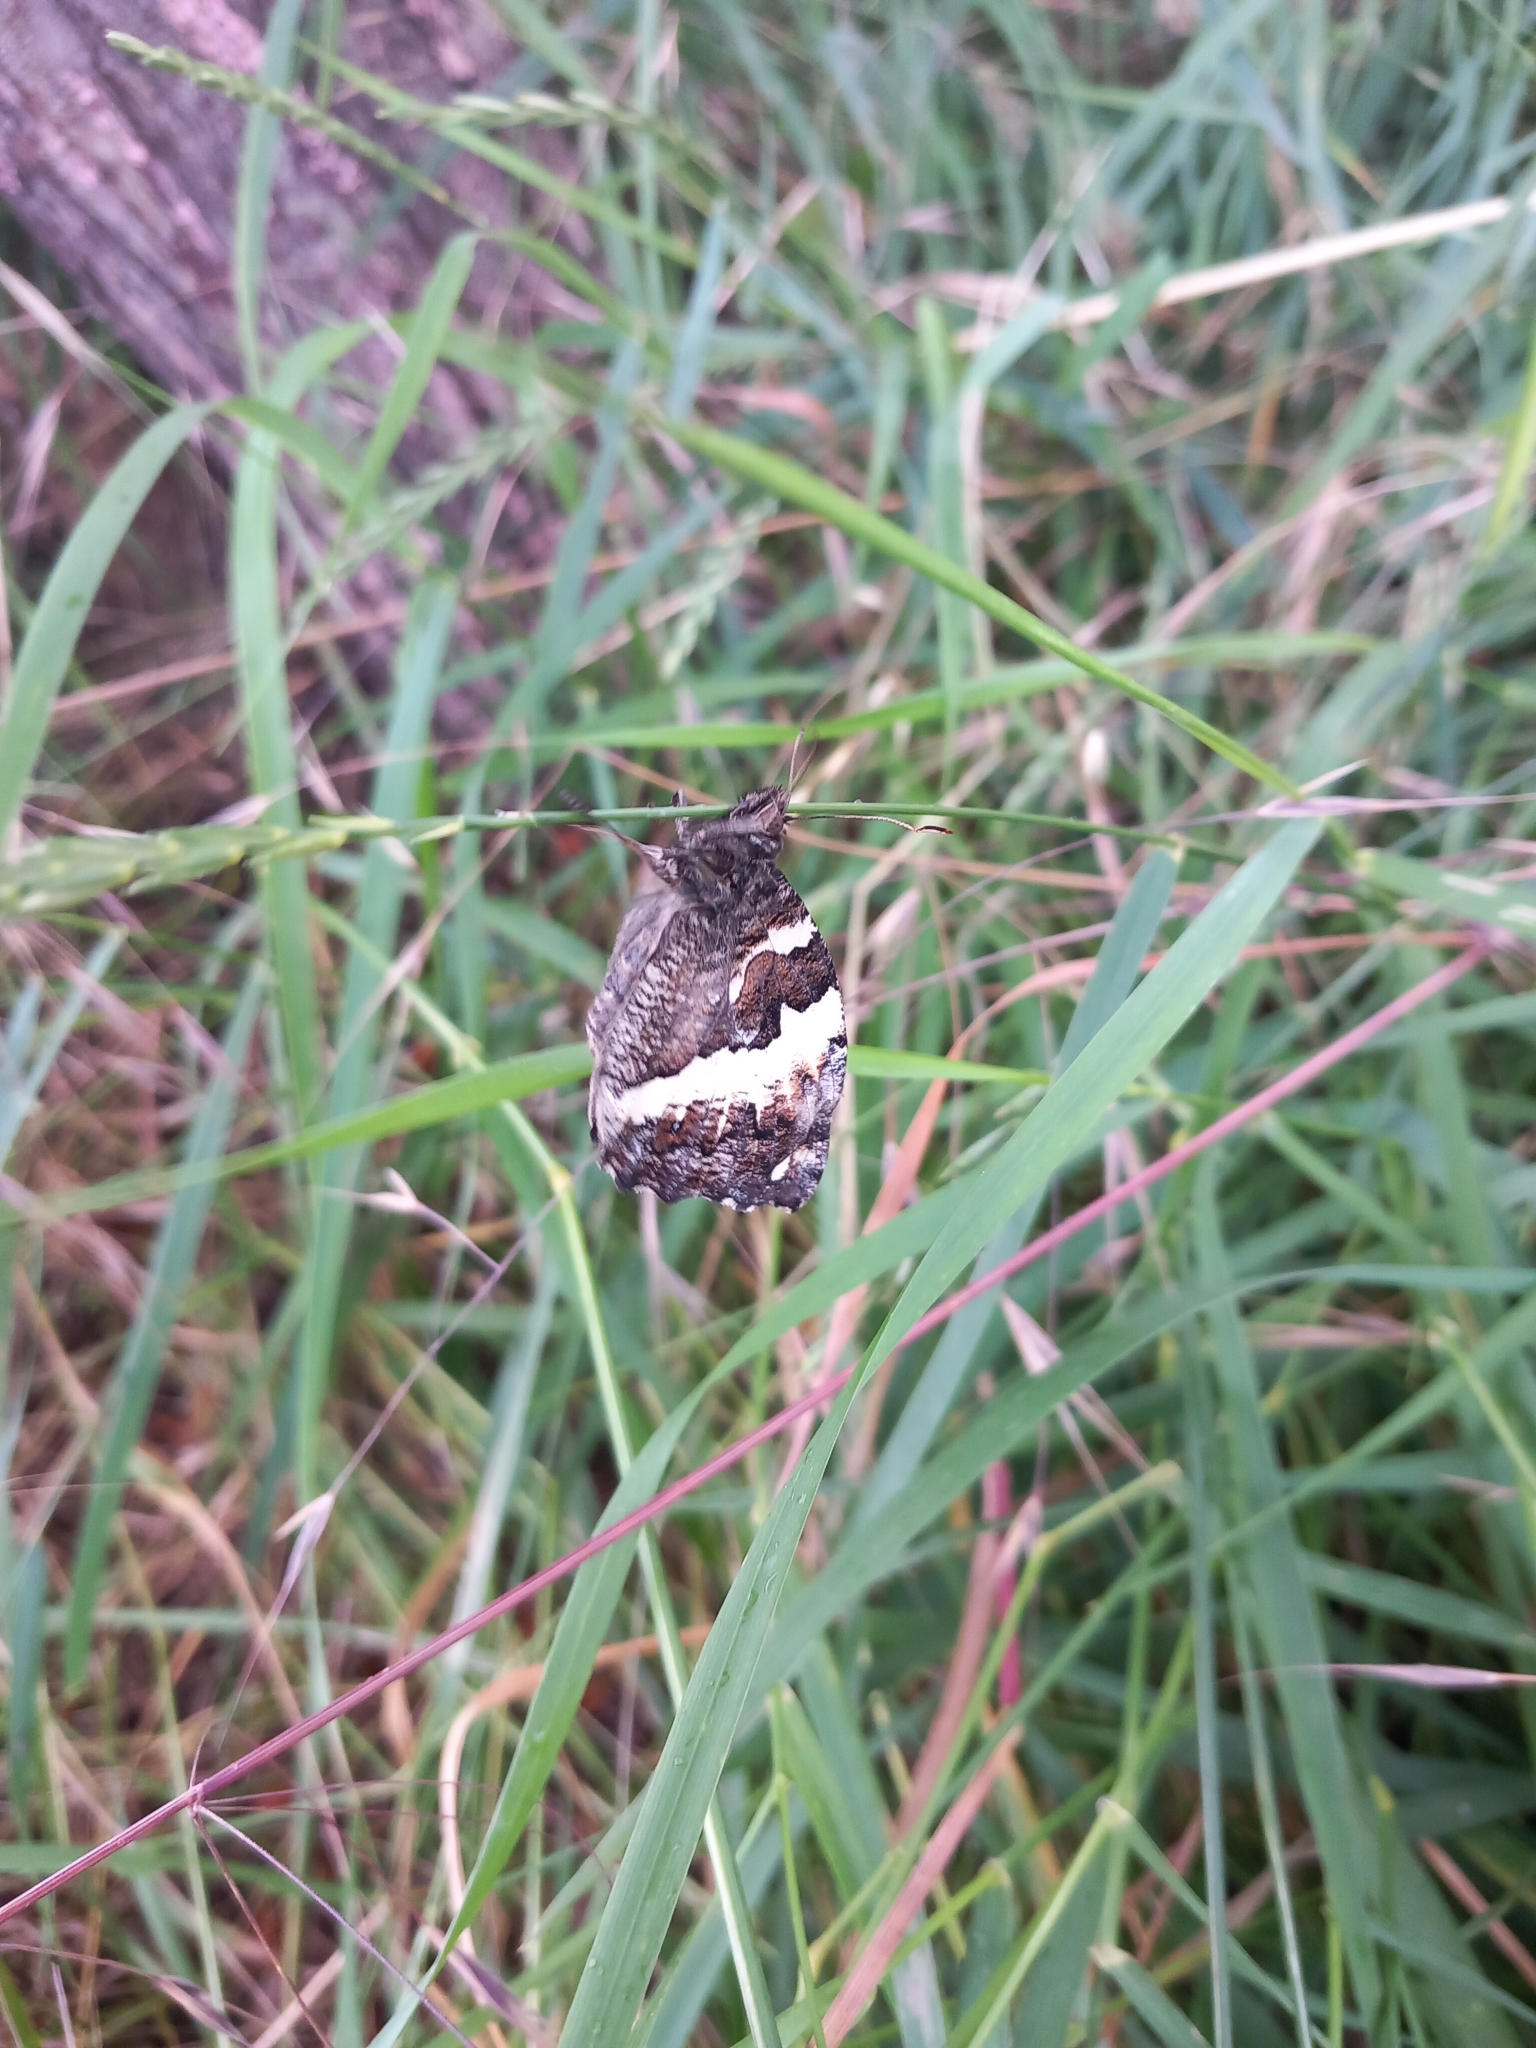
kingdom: Animalia
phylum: Arthropoda
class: Insecta
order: Lepidoptera
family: Lycaenidae
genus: Loweia
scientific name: Loweia tityrus
